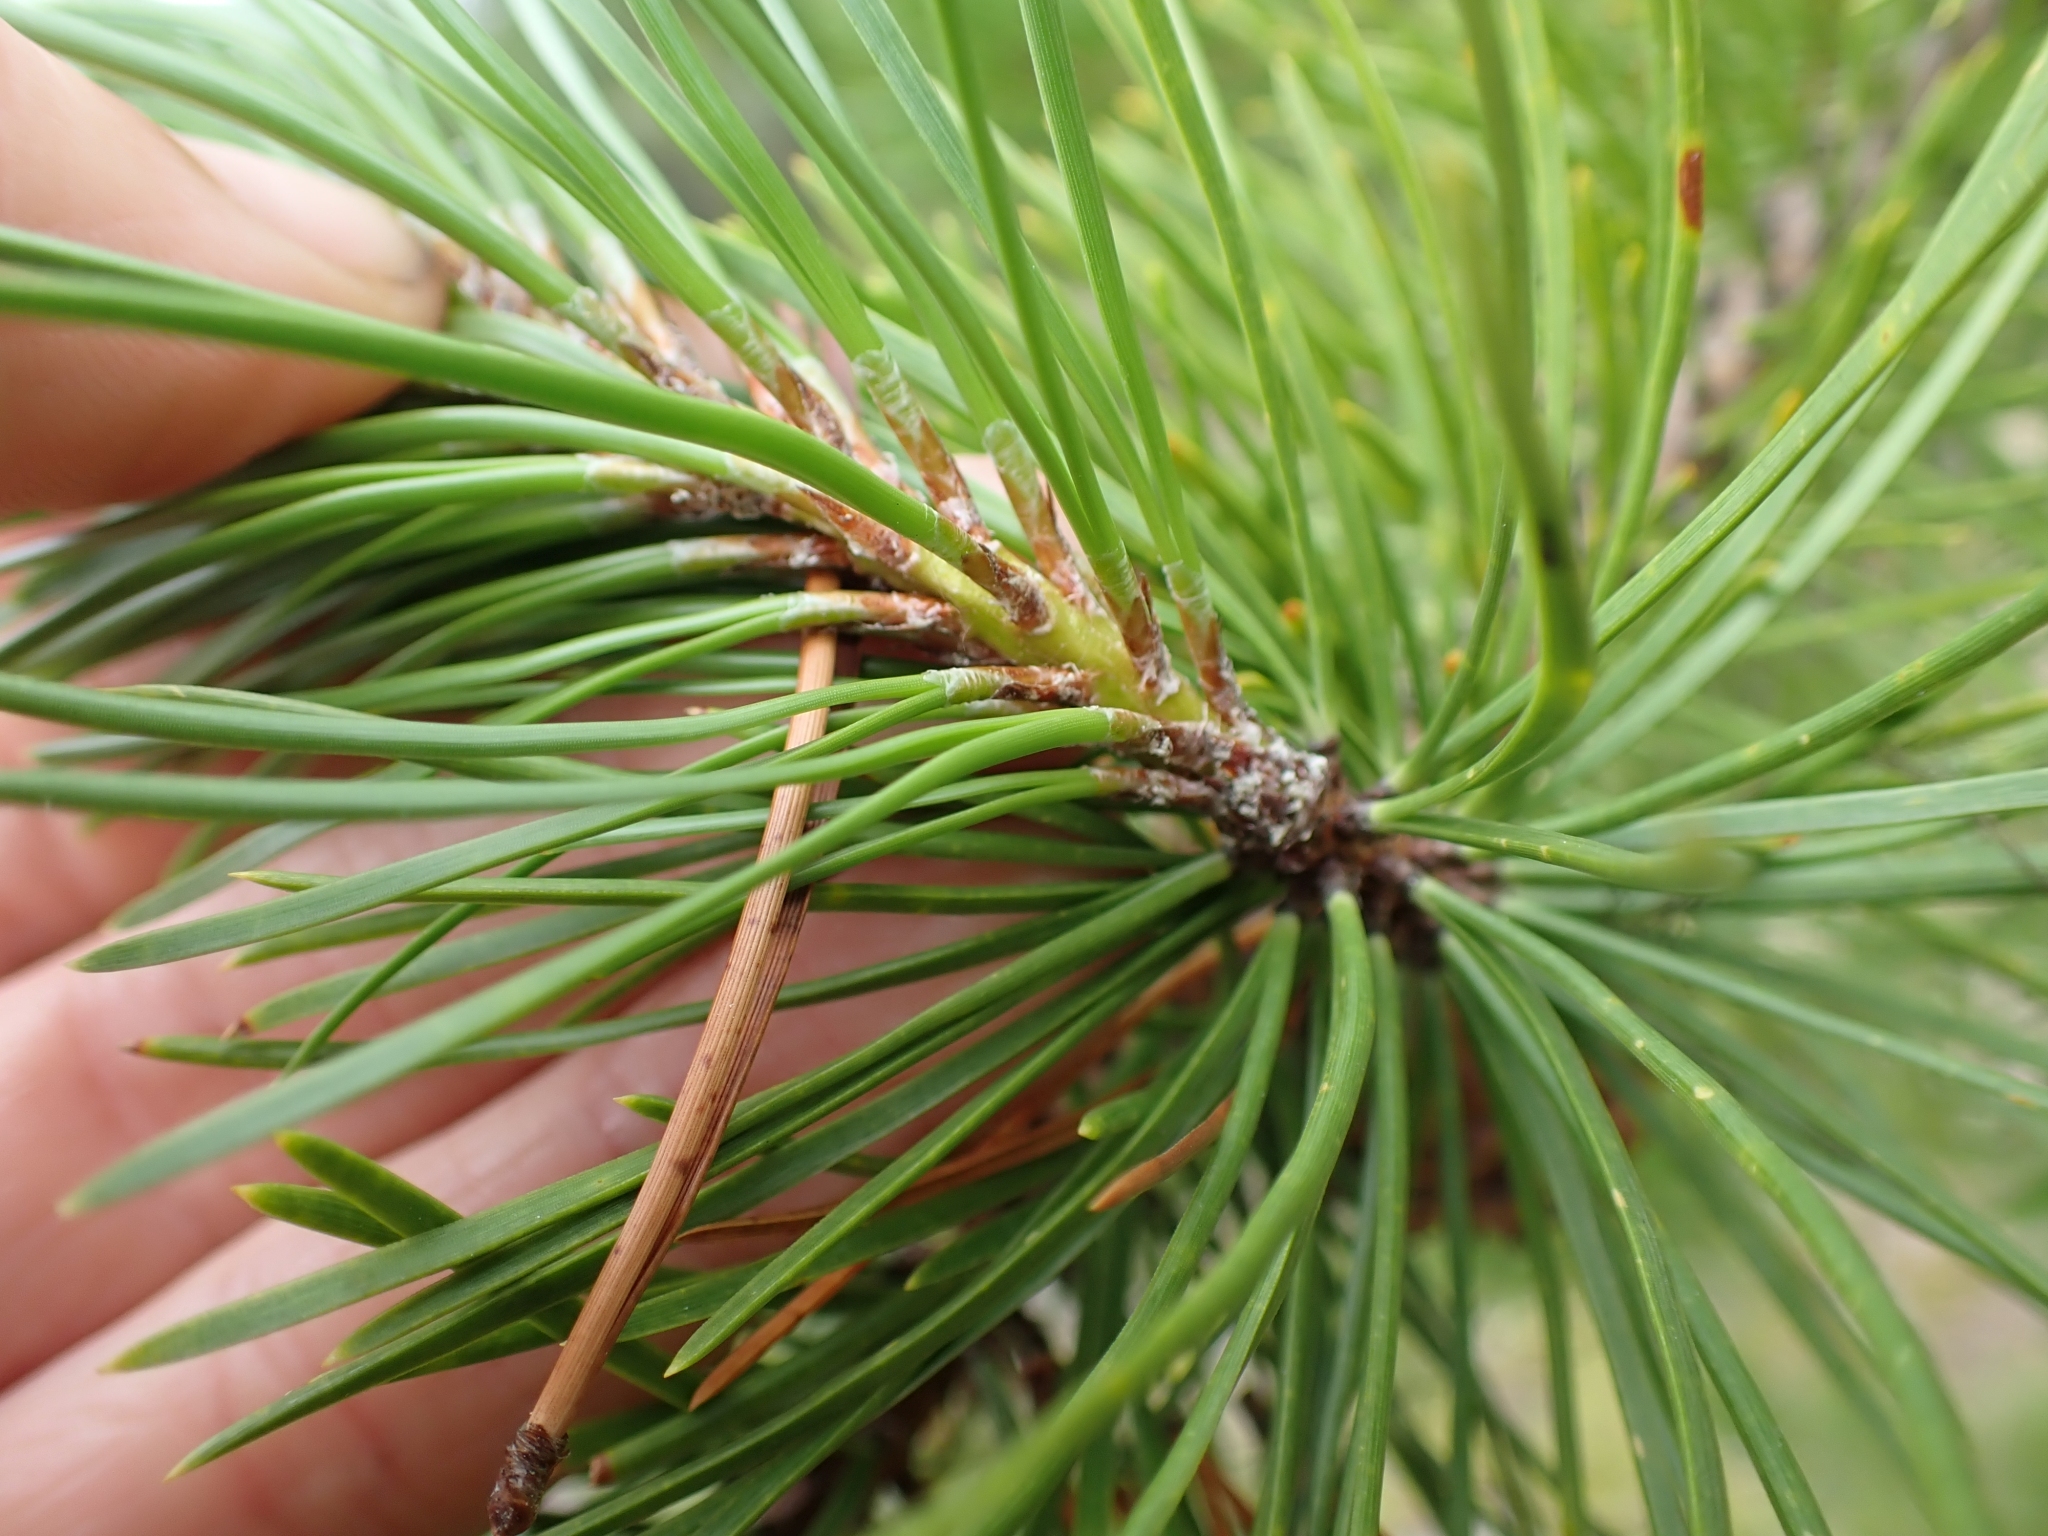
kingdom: Plantae
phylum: Tracheophyta
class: Pinopsida
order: Pinales
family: Pinaceae
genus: Pinus
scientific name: Pinus contorta
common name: Lodgepole pine
